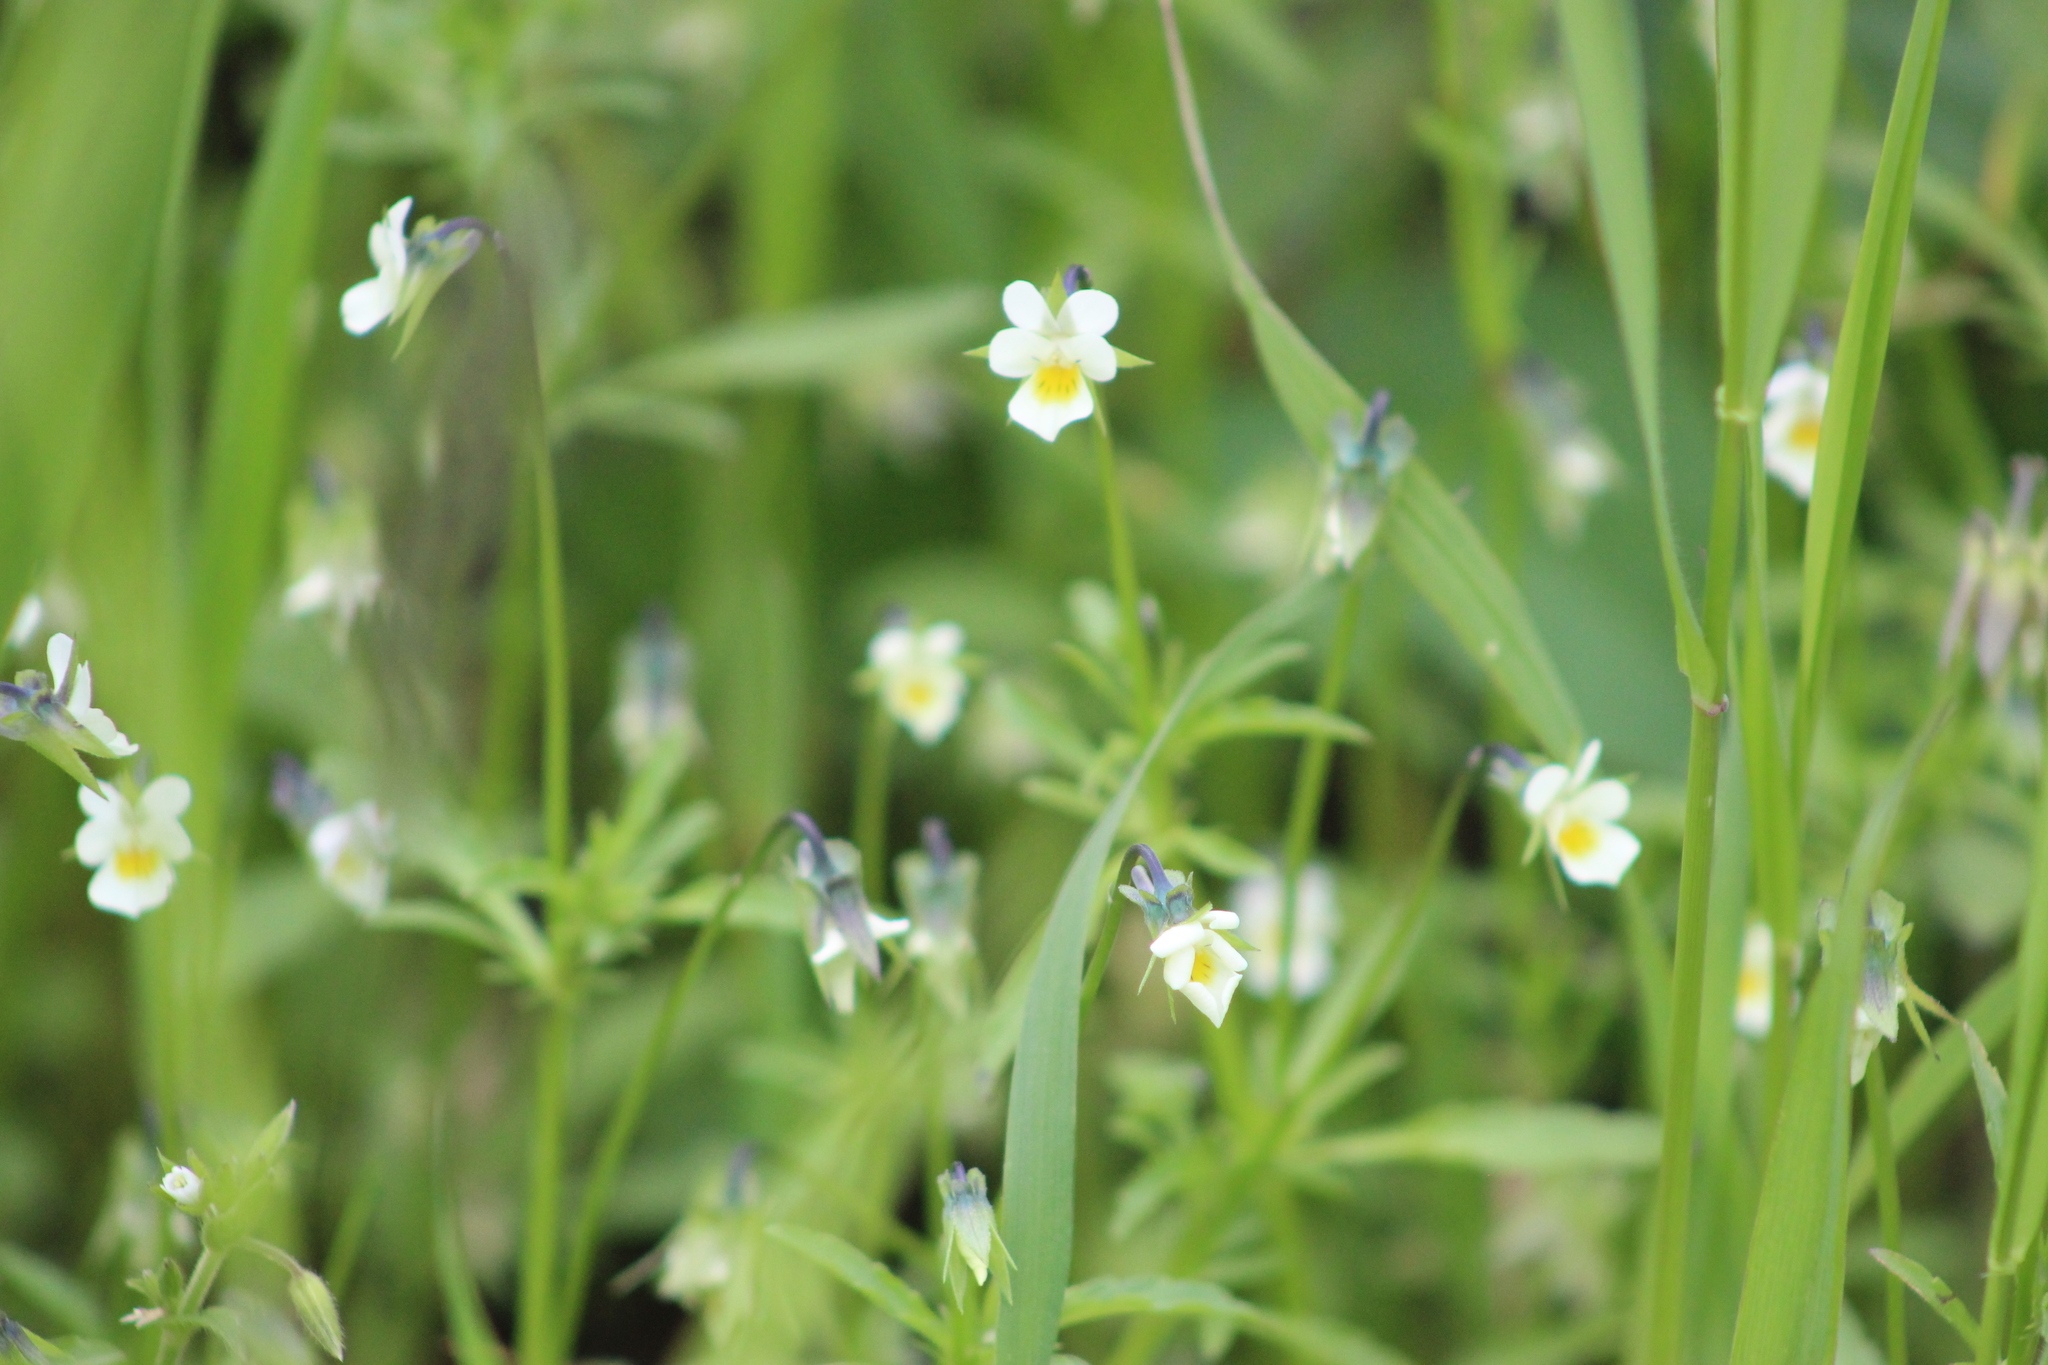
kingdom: Plantae
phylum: Tracheophyta
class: Magnoliopsida
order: Malpighiales
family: Violaceae
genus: Viola
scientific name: Viola arvensis
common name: Field pansy
